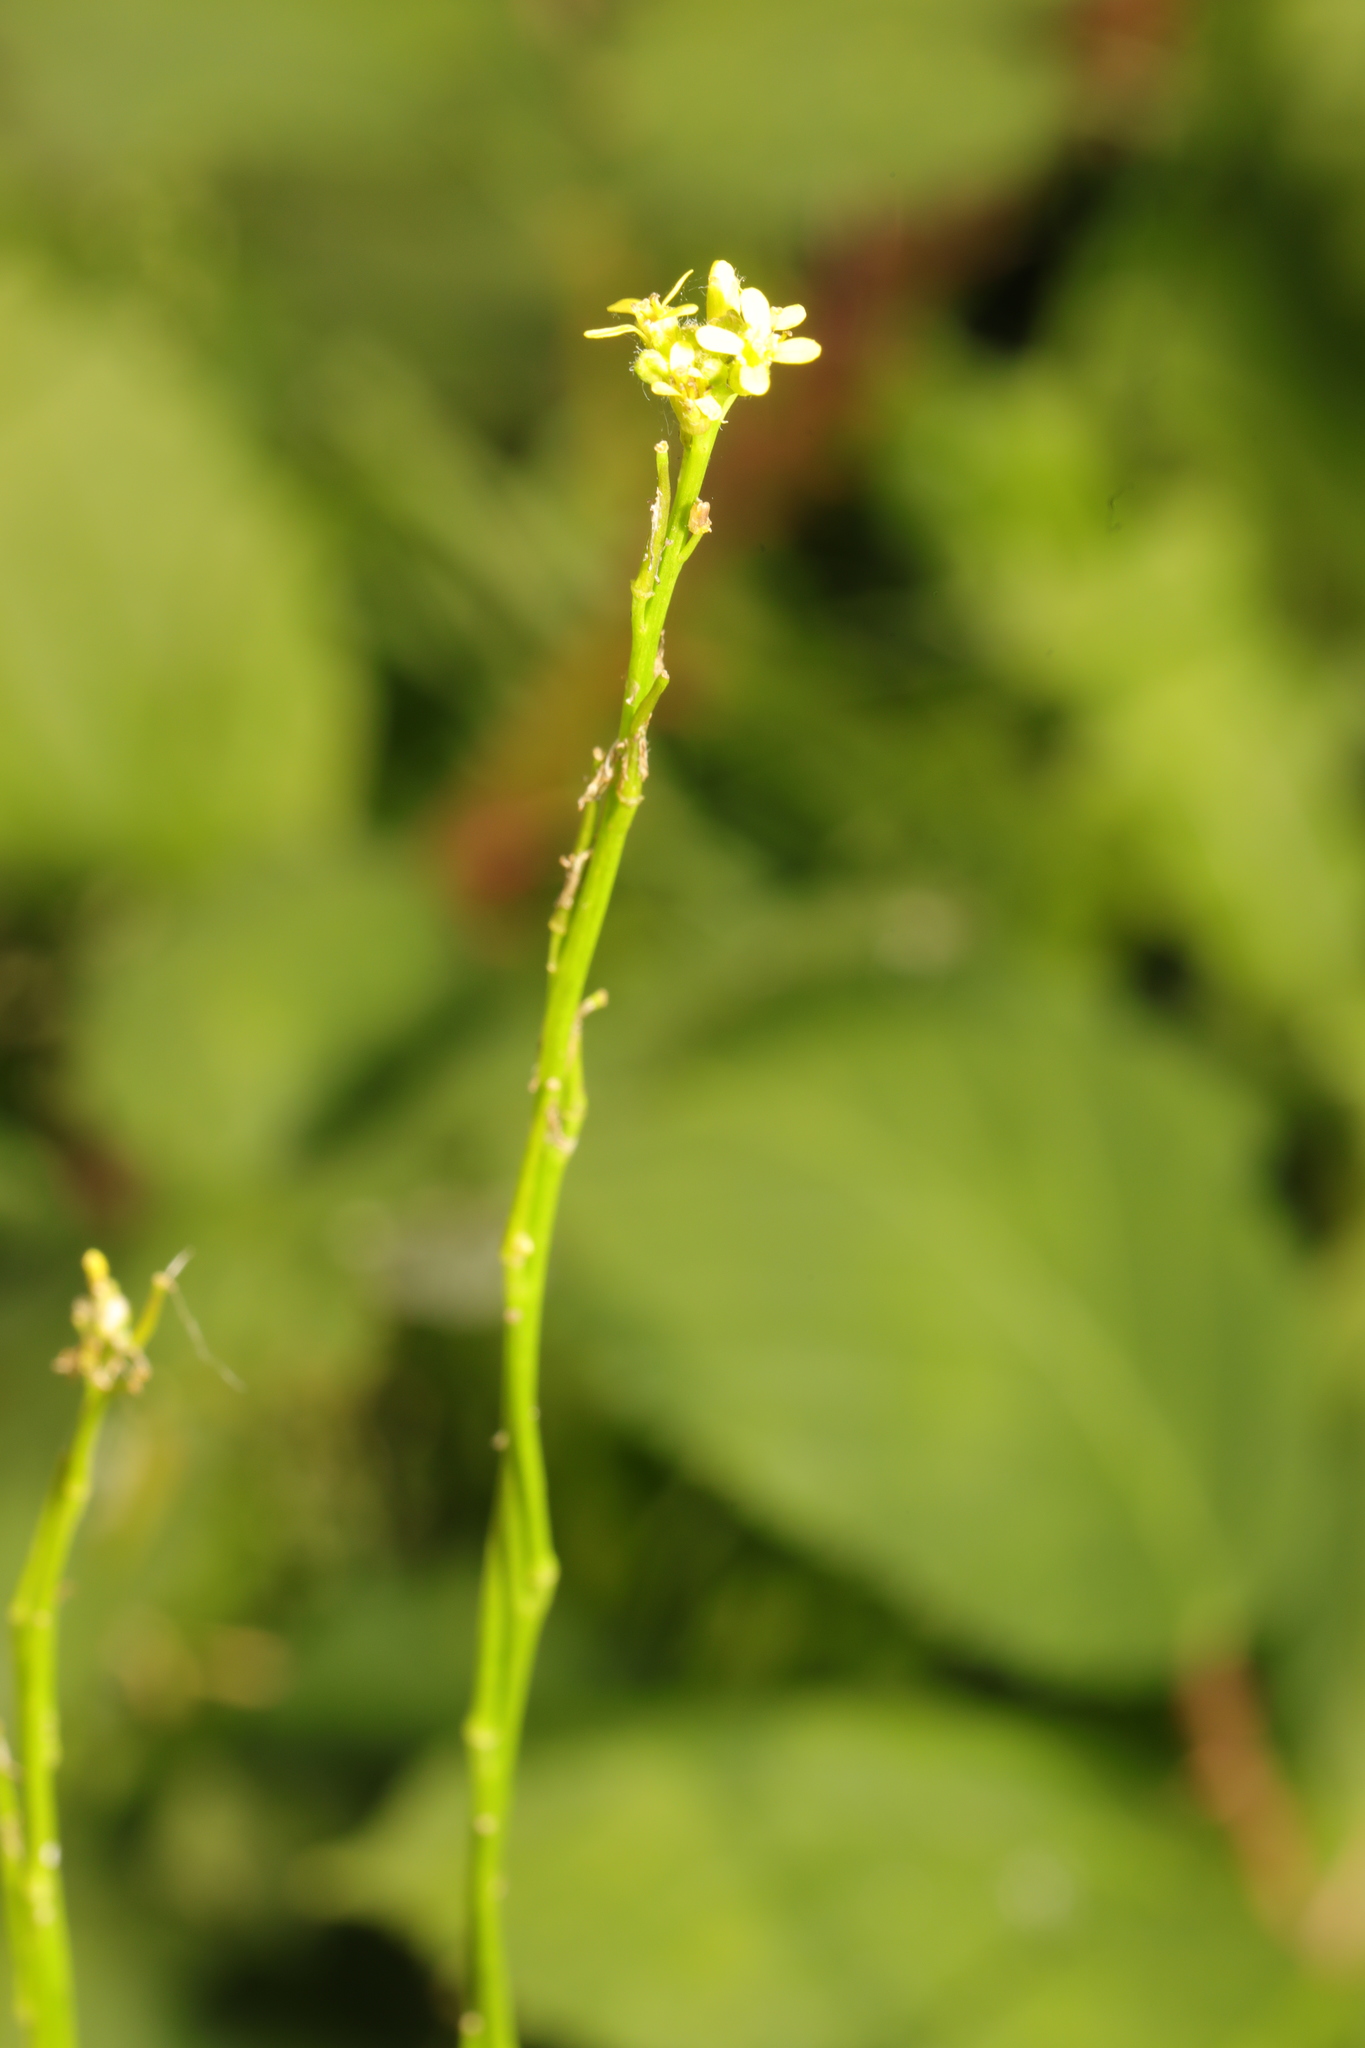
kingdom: Plantae
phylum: Tracheophyta
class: Magnoliopsida
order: Brassicales
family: Brassicaceae
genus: Sisymbrium
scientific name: Sisymbrium officinale
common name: Hedge mustard
